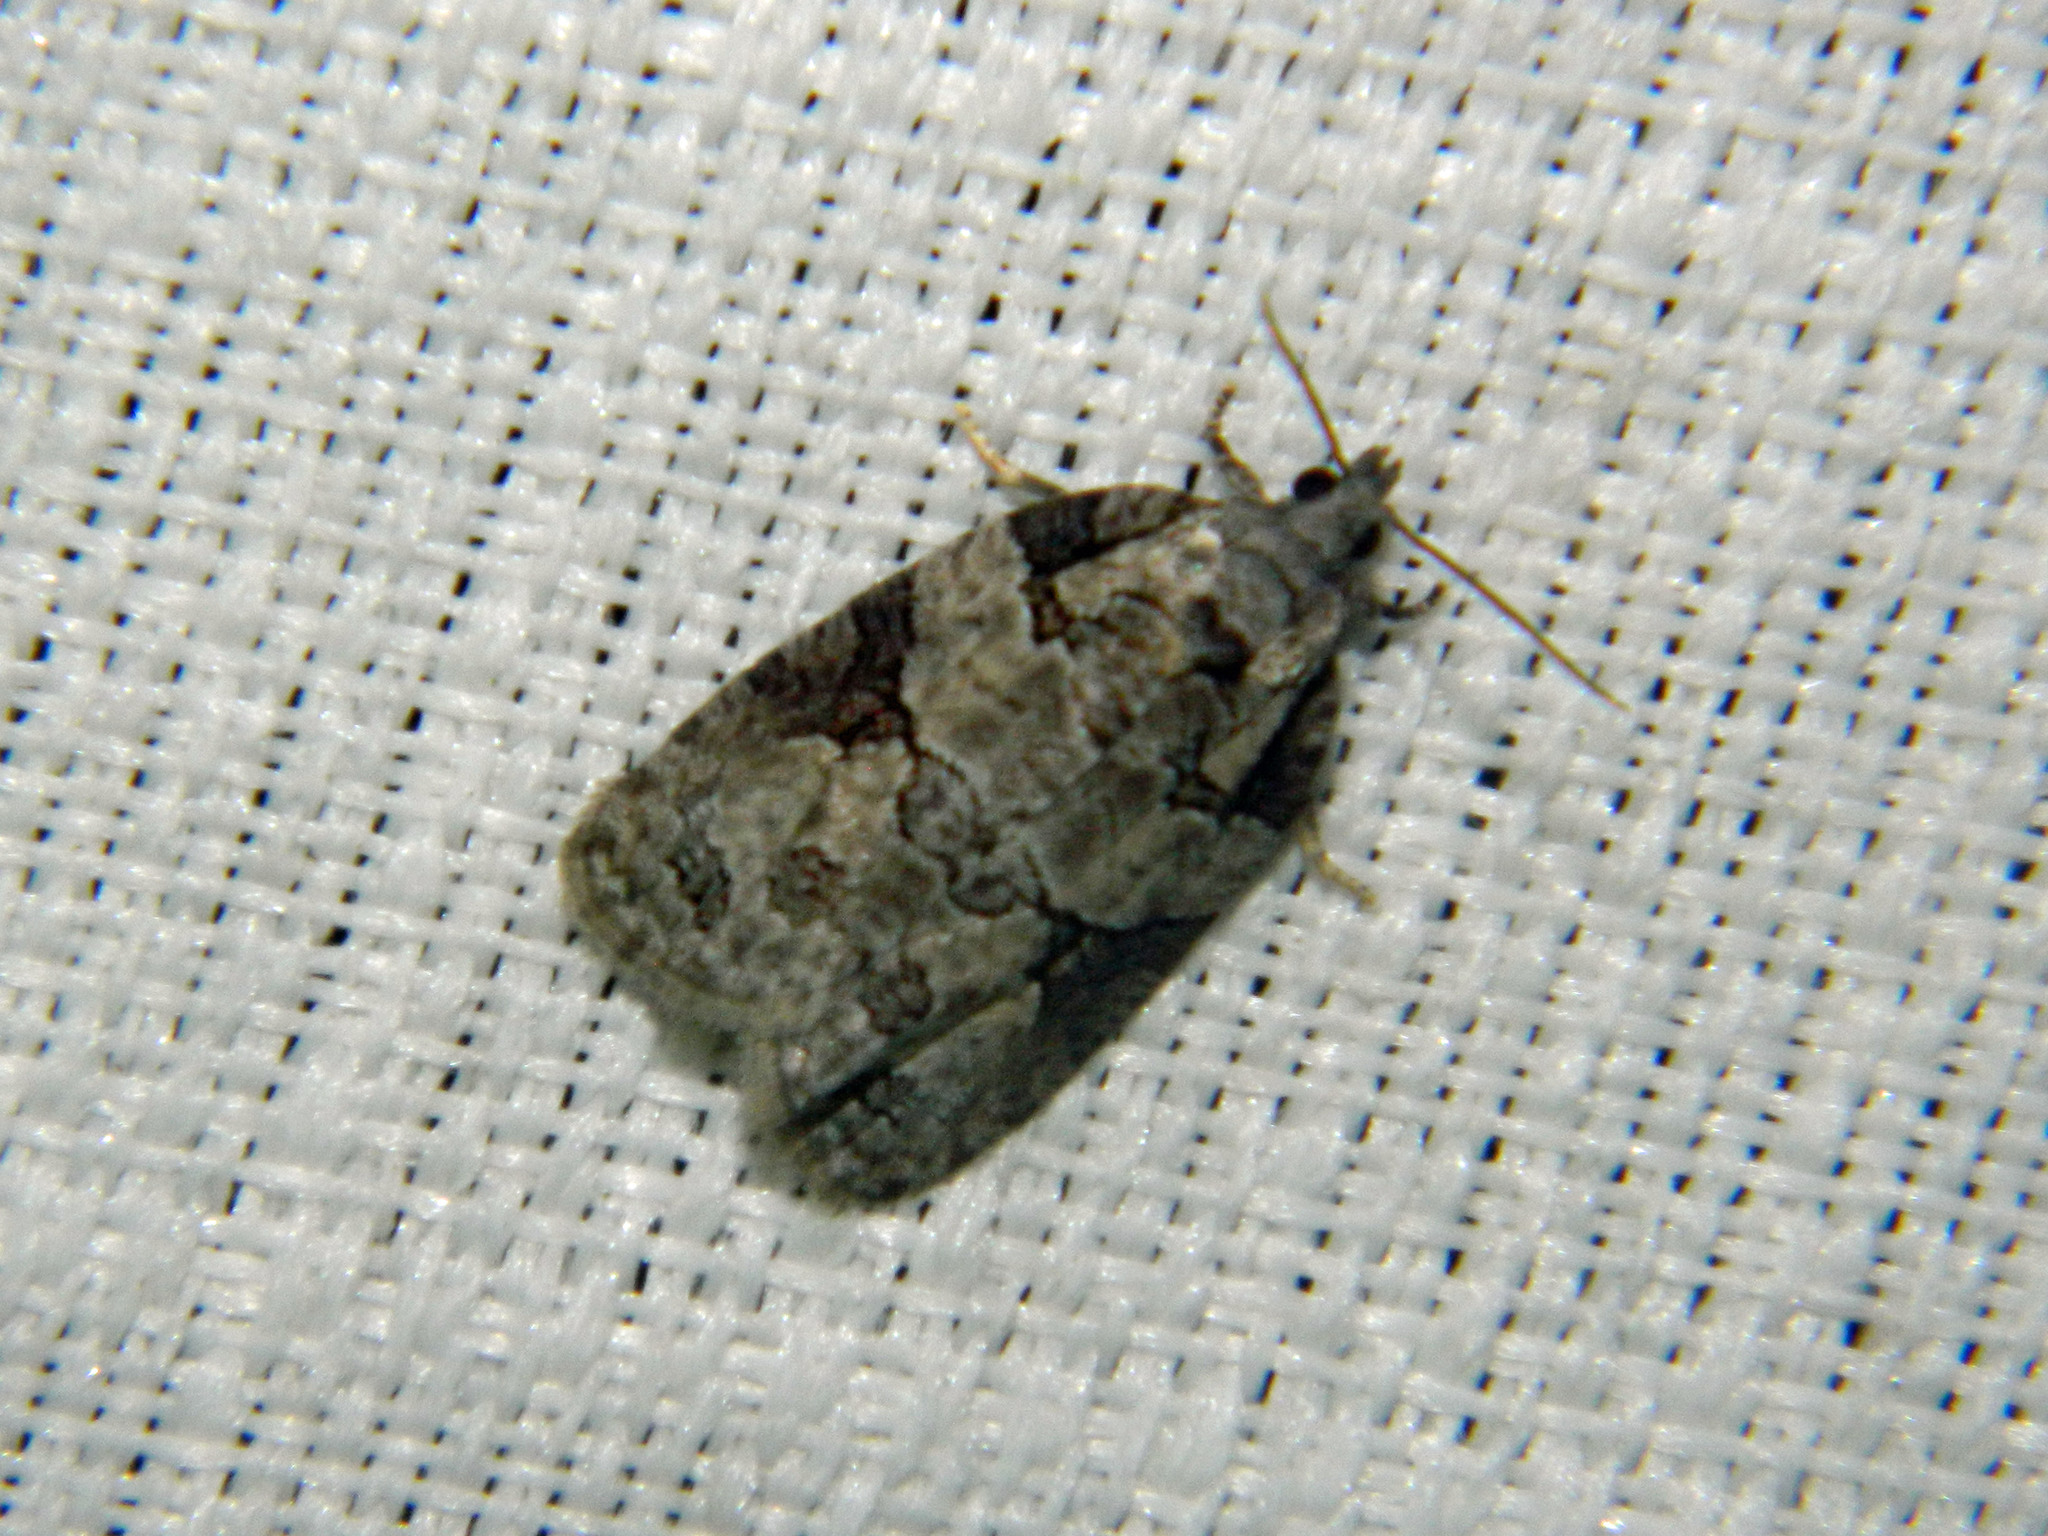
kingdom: Animalia
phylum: Arthropoda
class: Insecta
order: Lepidoptera
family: Tortricidae
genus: Apotomis
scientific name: Apotomis deceptana
